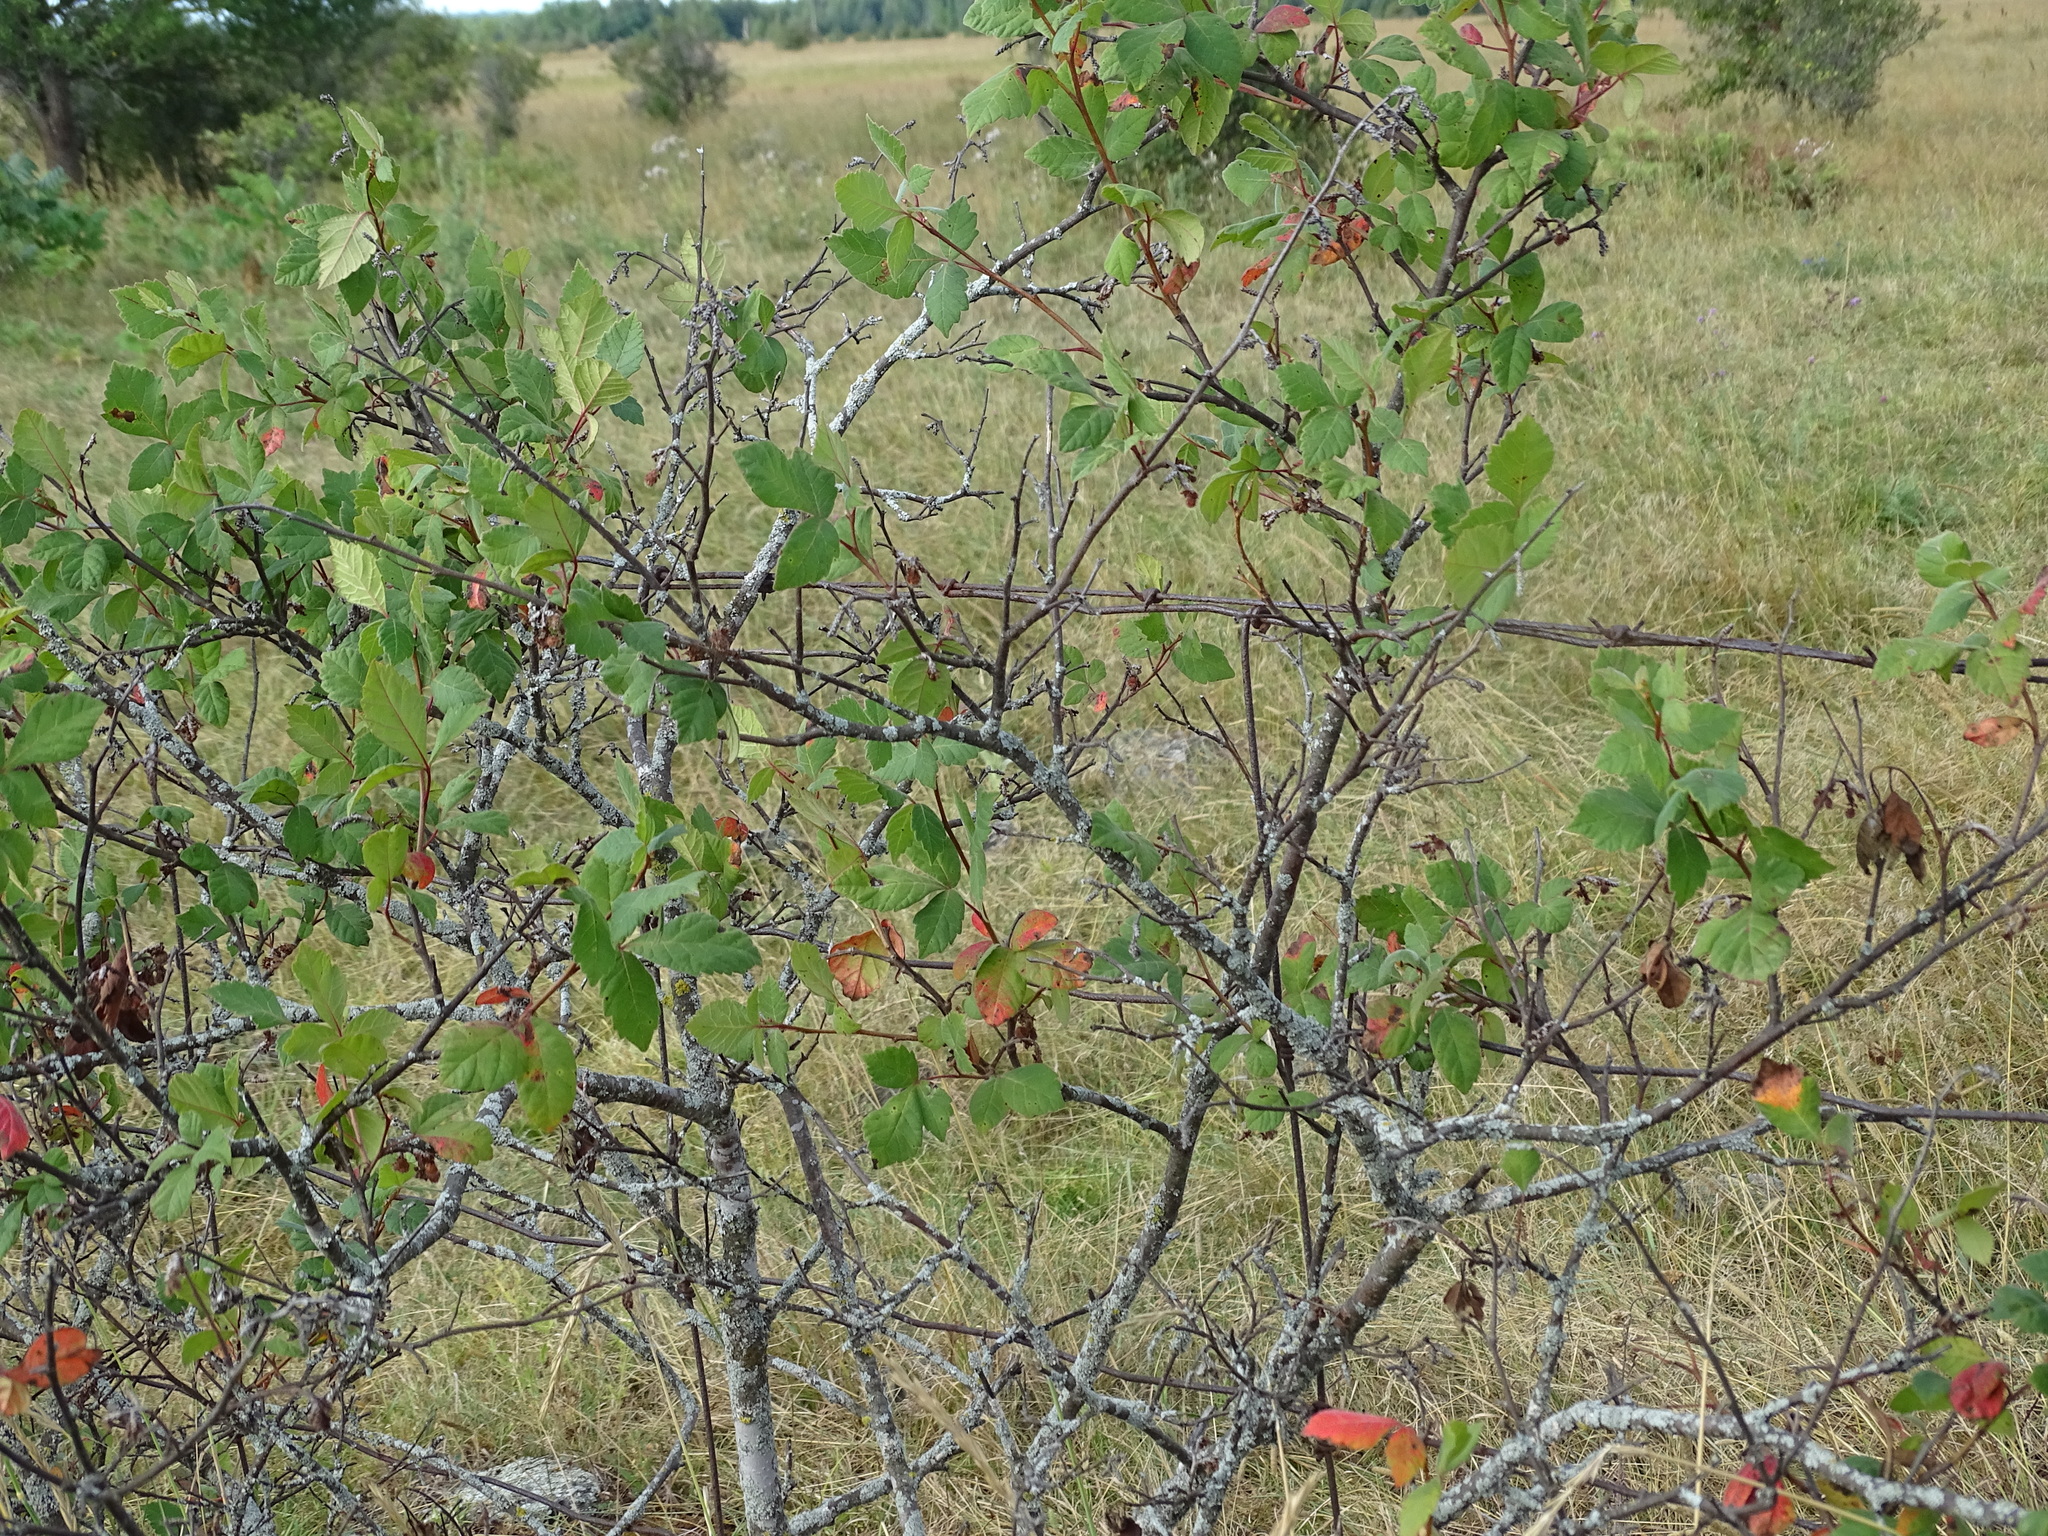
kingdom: Plantae
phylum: Tracheophyta
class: Magnoliopsida
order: Sapindales
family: Anacardiaceae
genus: Rhus
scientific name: Rhus aromatica
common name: Aromatic sumac
